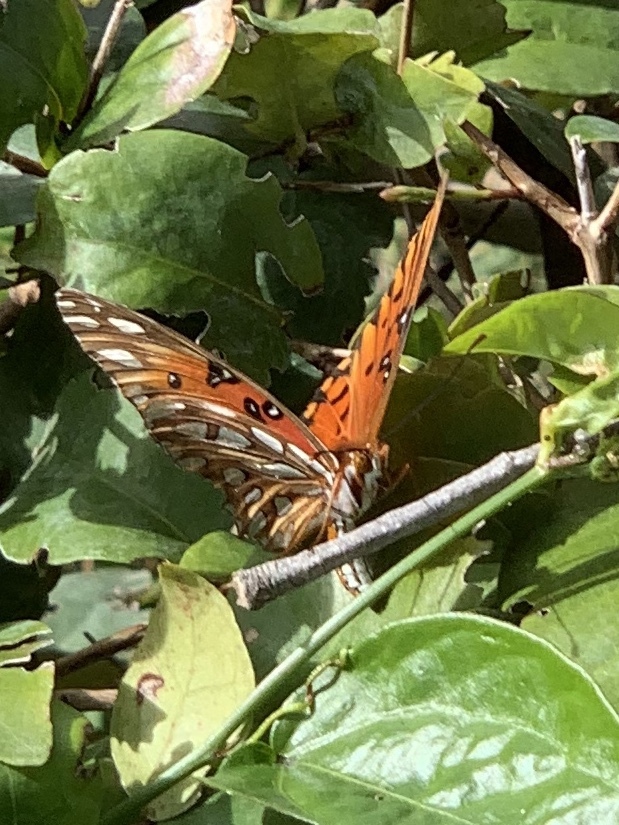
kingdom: Animalia
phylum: Arthropoda
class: Insecta
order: Lepidoptera
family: Nymphalidae
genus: Dione
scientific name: Dione vanillae
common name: Gulf fritillary
